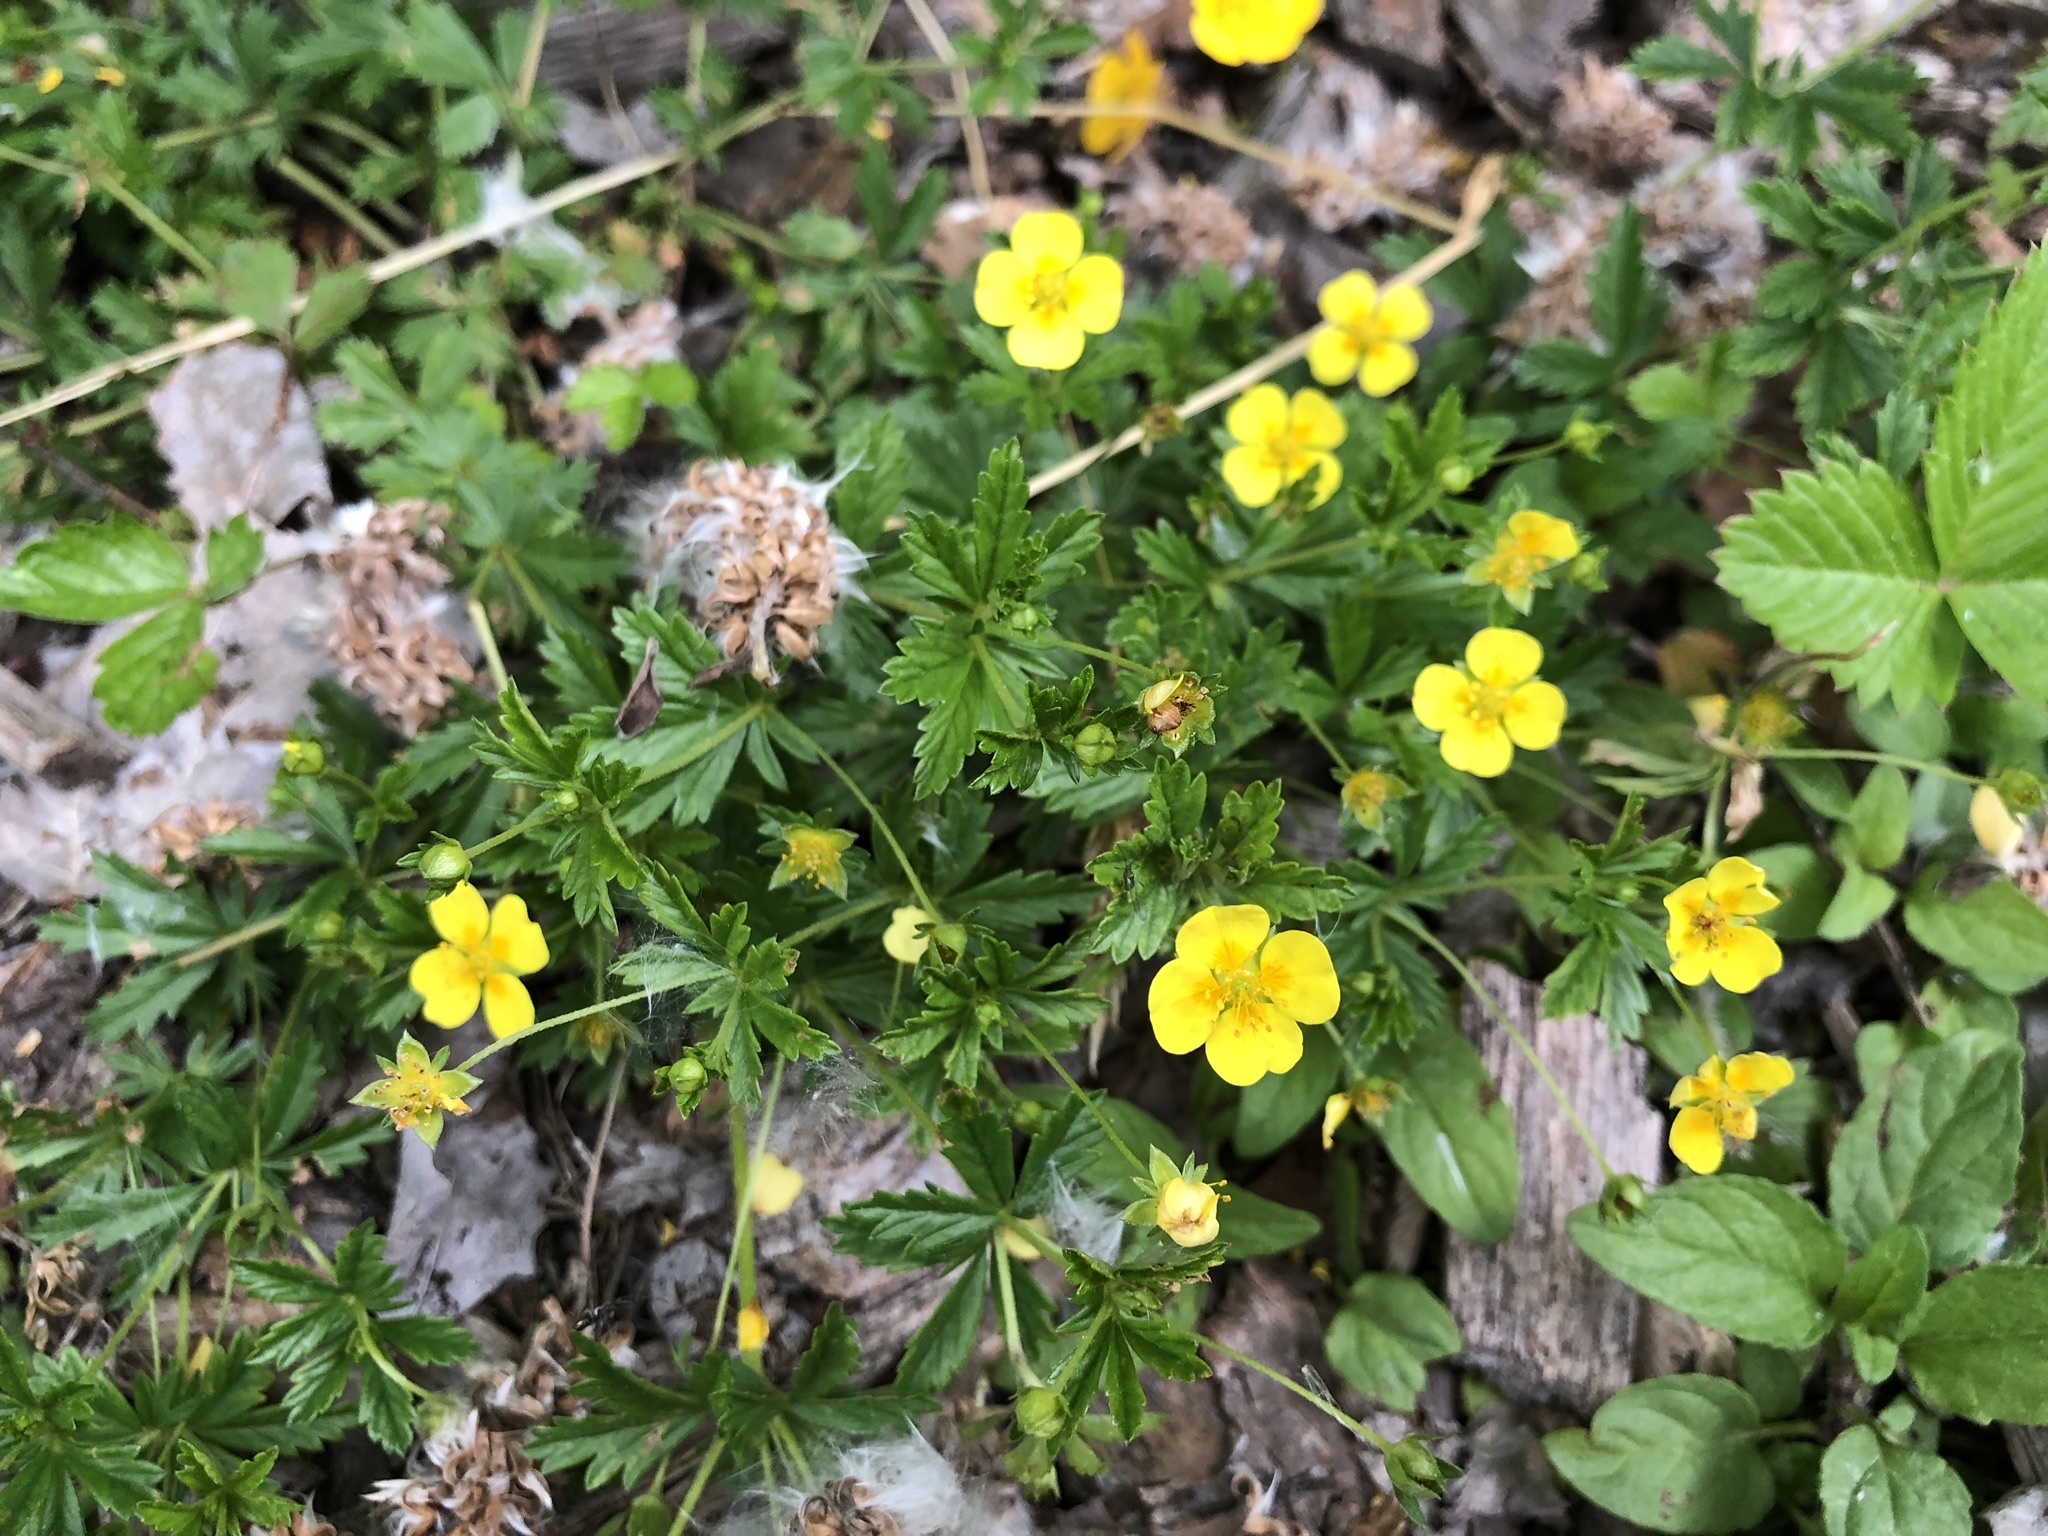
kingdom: Plantae
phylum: Tracheophyta
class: Magnoliopsida
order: Rosales
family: Rosaceae
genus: Potentilla
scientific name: Potentilla erecta
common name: Tormentil
